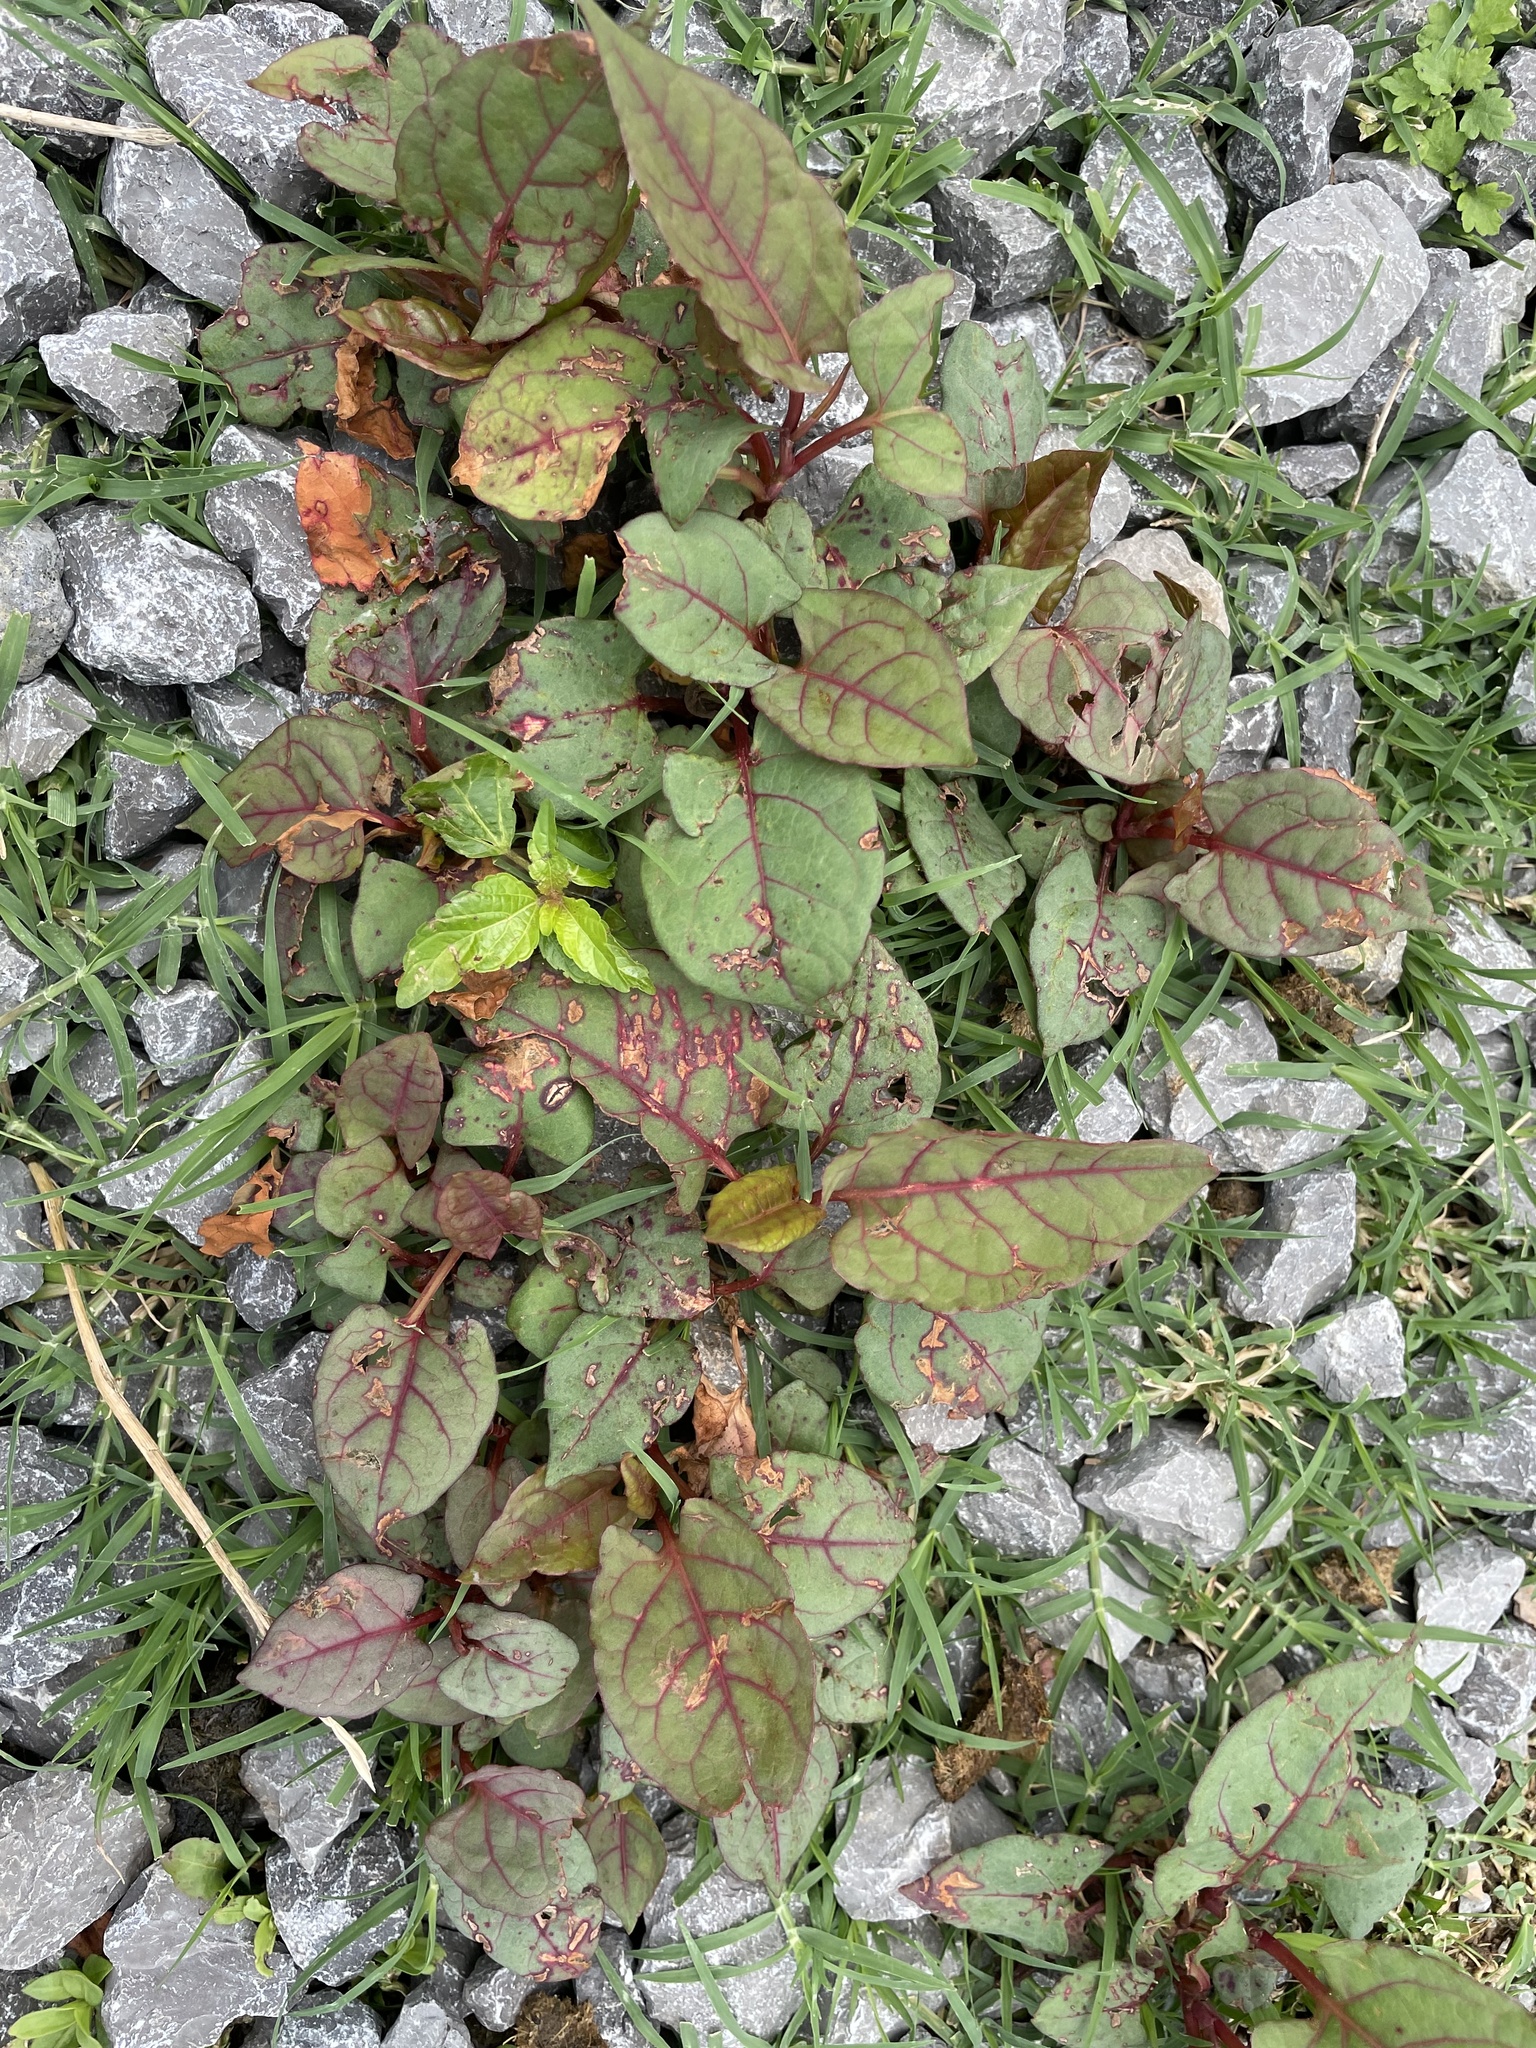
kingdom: Plantae
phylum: Tracheophyta
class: Magnoliopsida
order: Caryophyllales
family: Polygonaceae
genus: Reynoutria
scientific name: Reynoutria japonica
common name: Japanese knotweed
